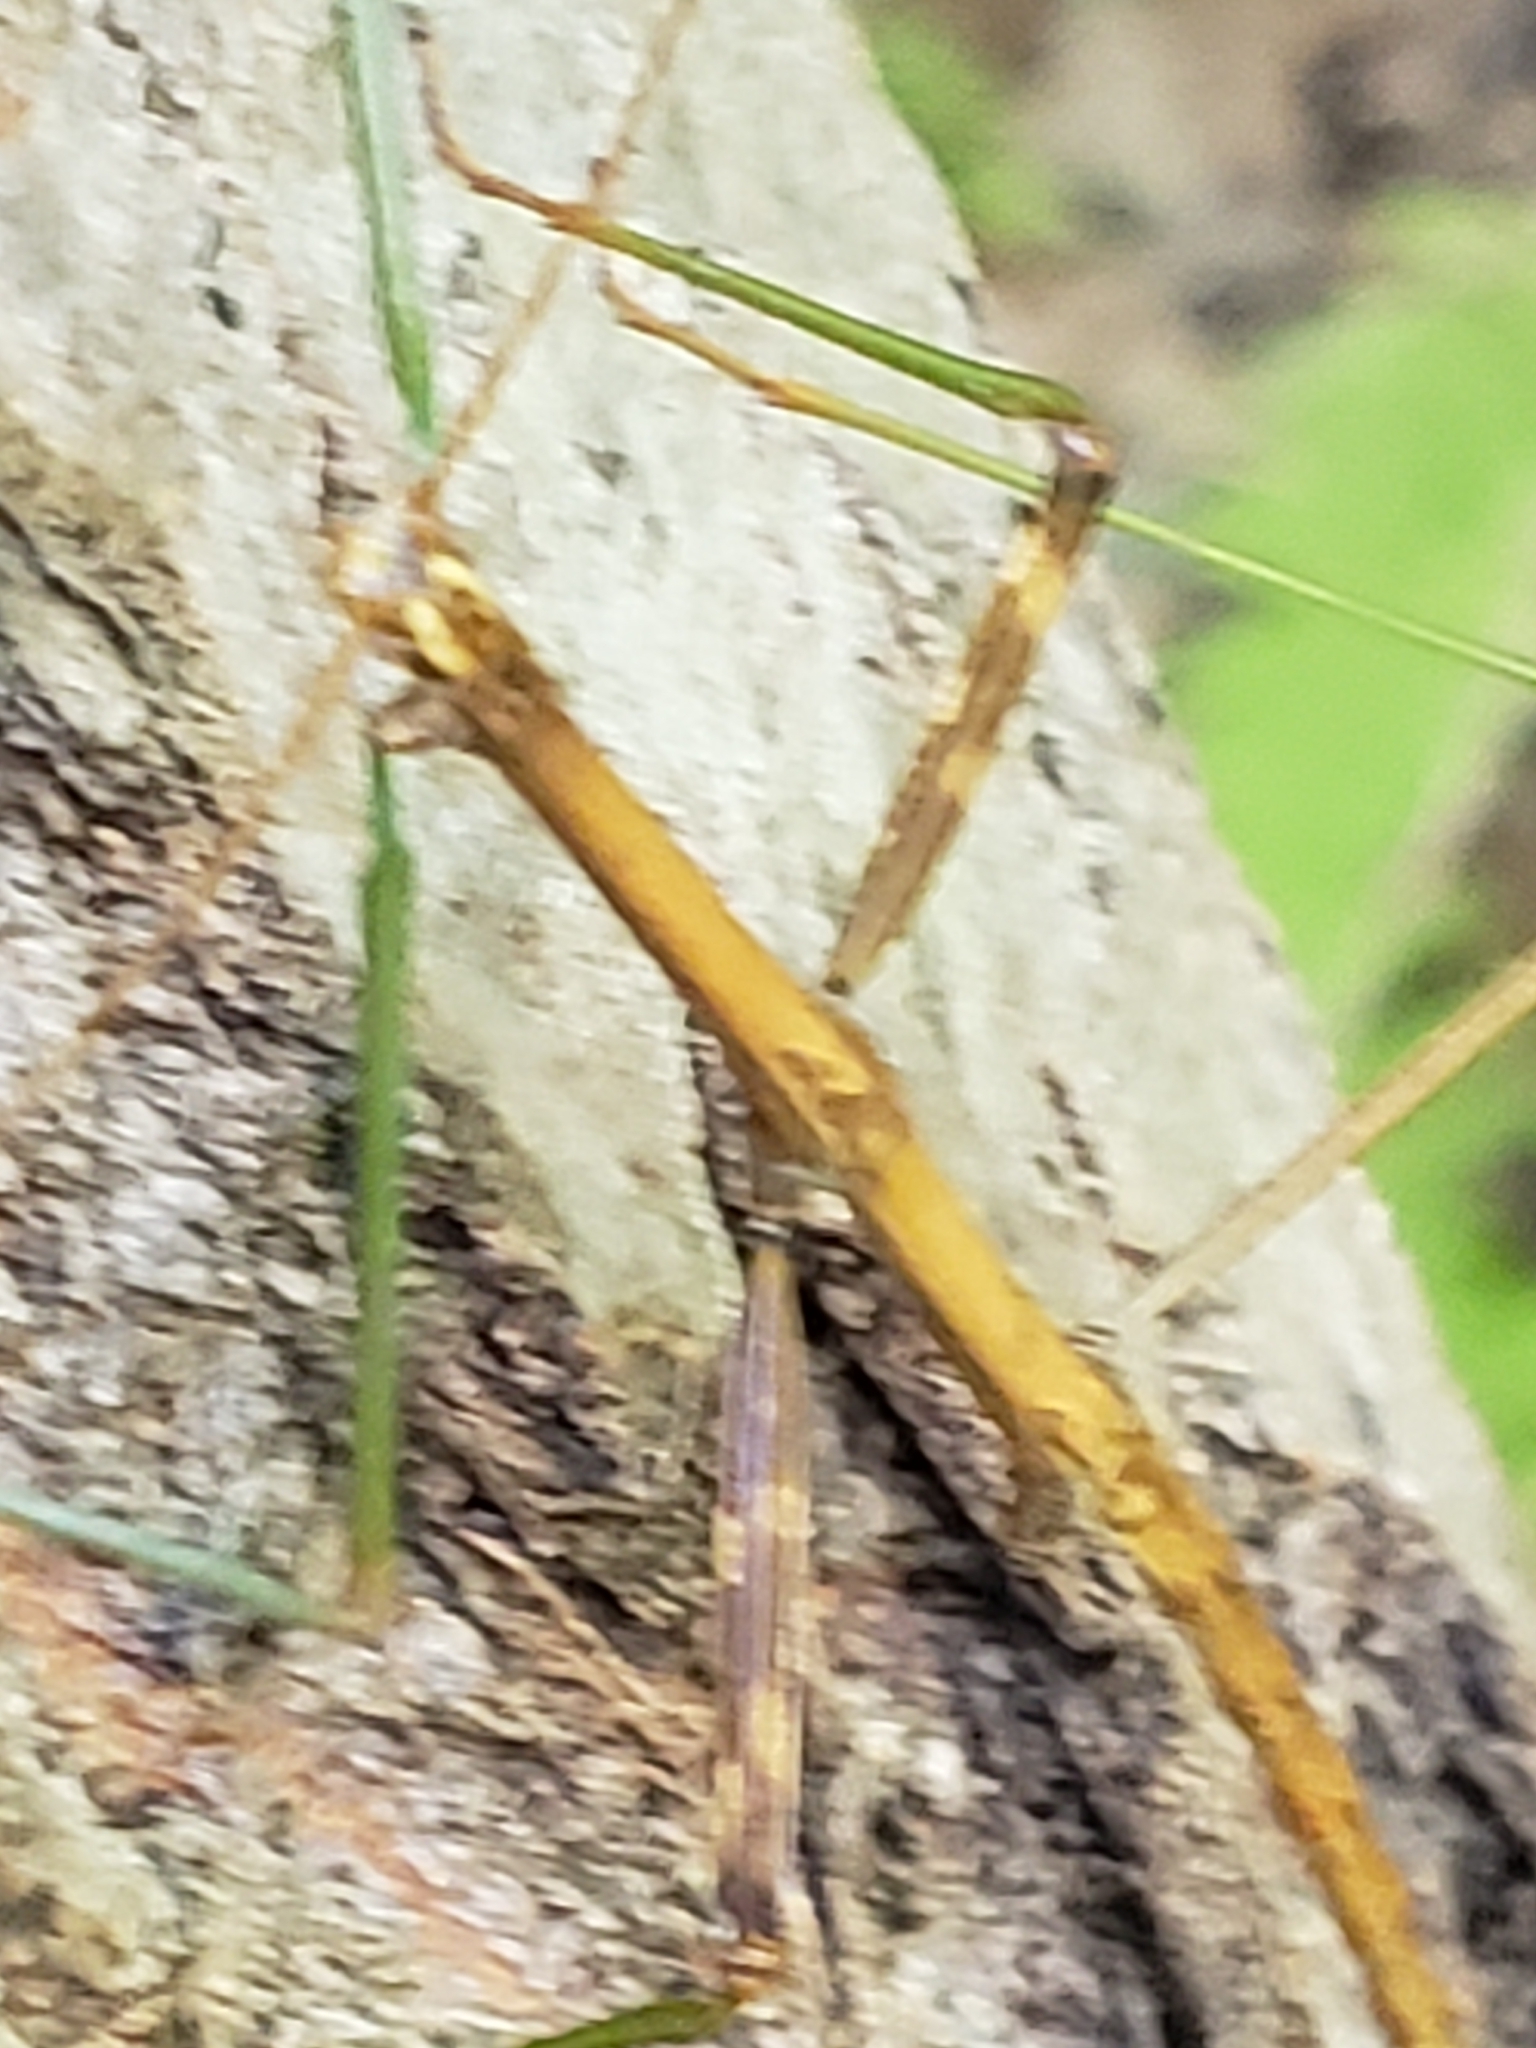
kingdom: Animalia
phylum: Arthropoda
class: Insecta
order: Phasmida
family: Diapheromeridae
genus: Diapheromera
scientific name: Diapheromera femorata
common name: Common american walkingstick
